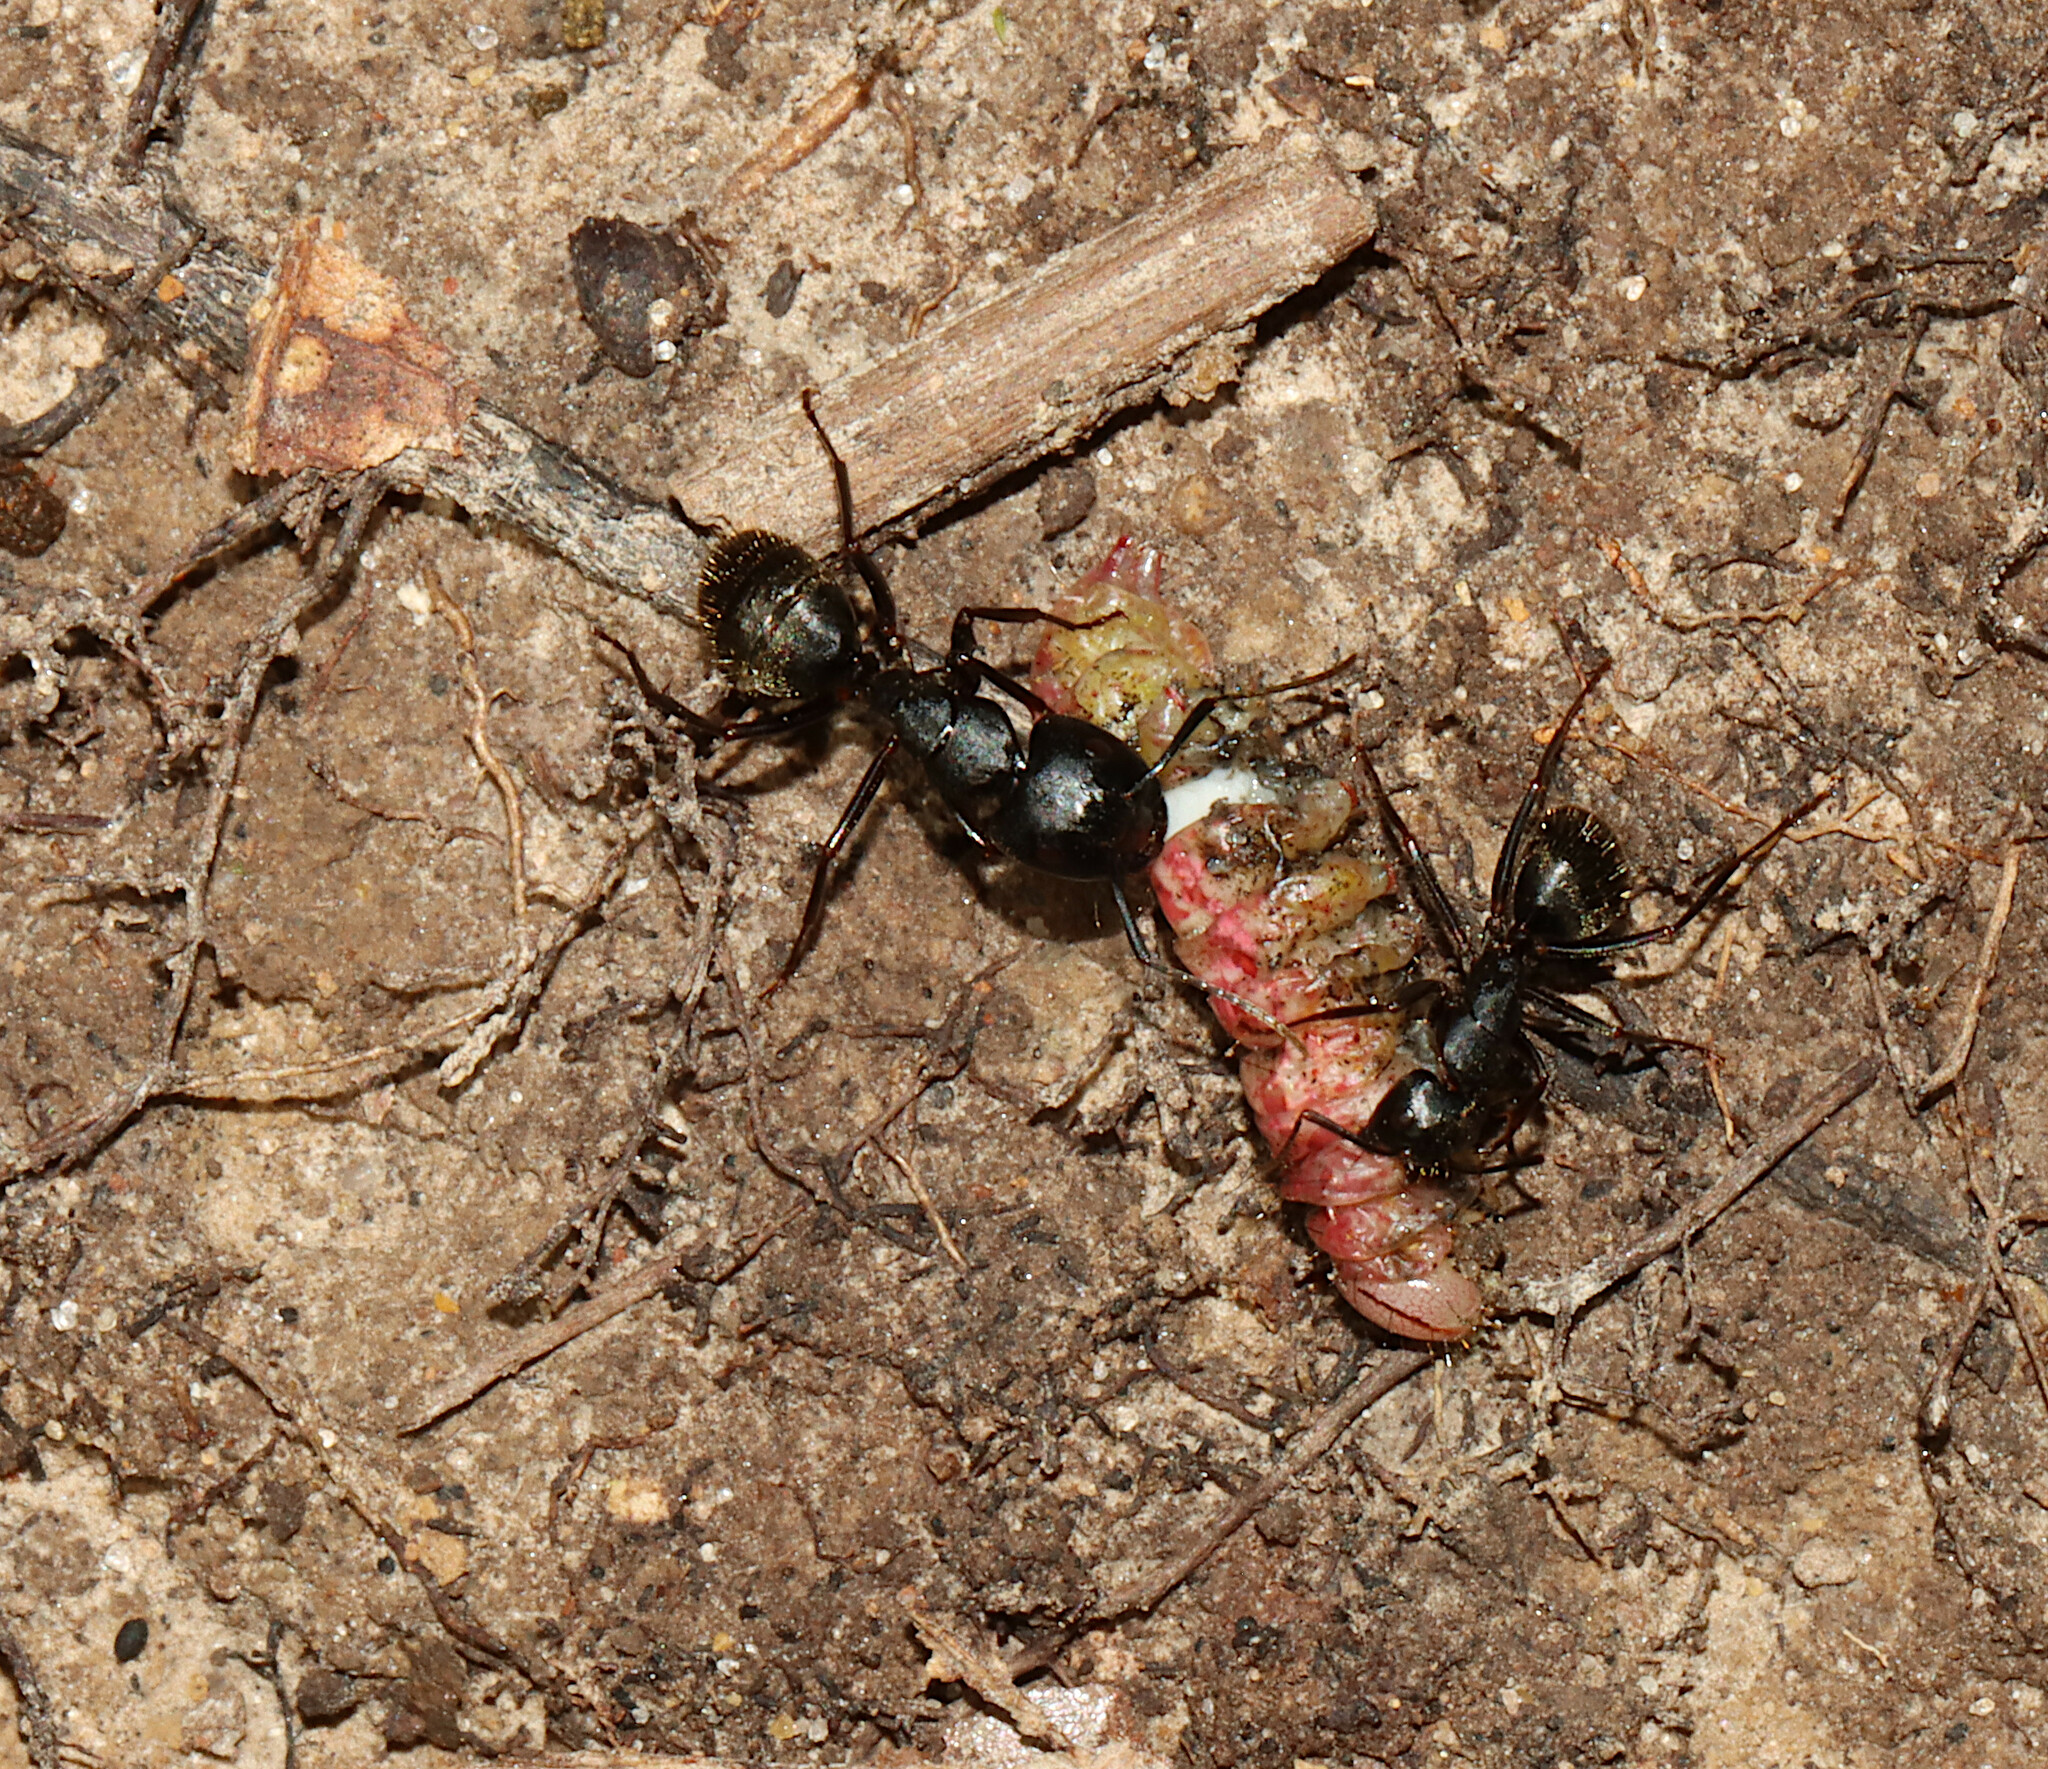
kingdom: Animalia
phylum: Arthropoda
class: Insecta
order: Hymenoptera
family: Formicidae
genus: Camponotus
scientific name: Camponotus pennsylvanicus
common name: Black carpenter ant
